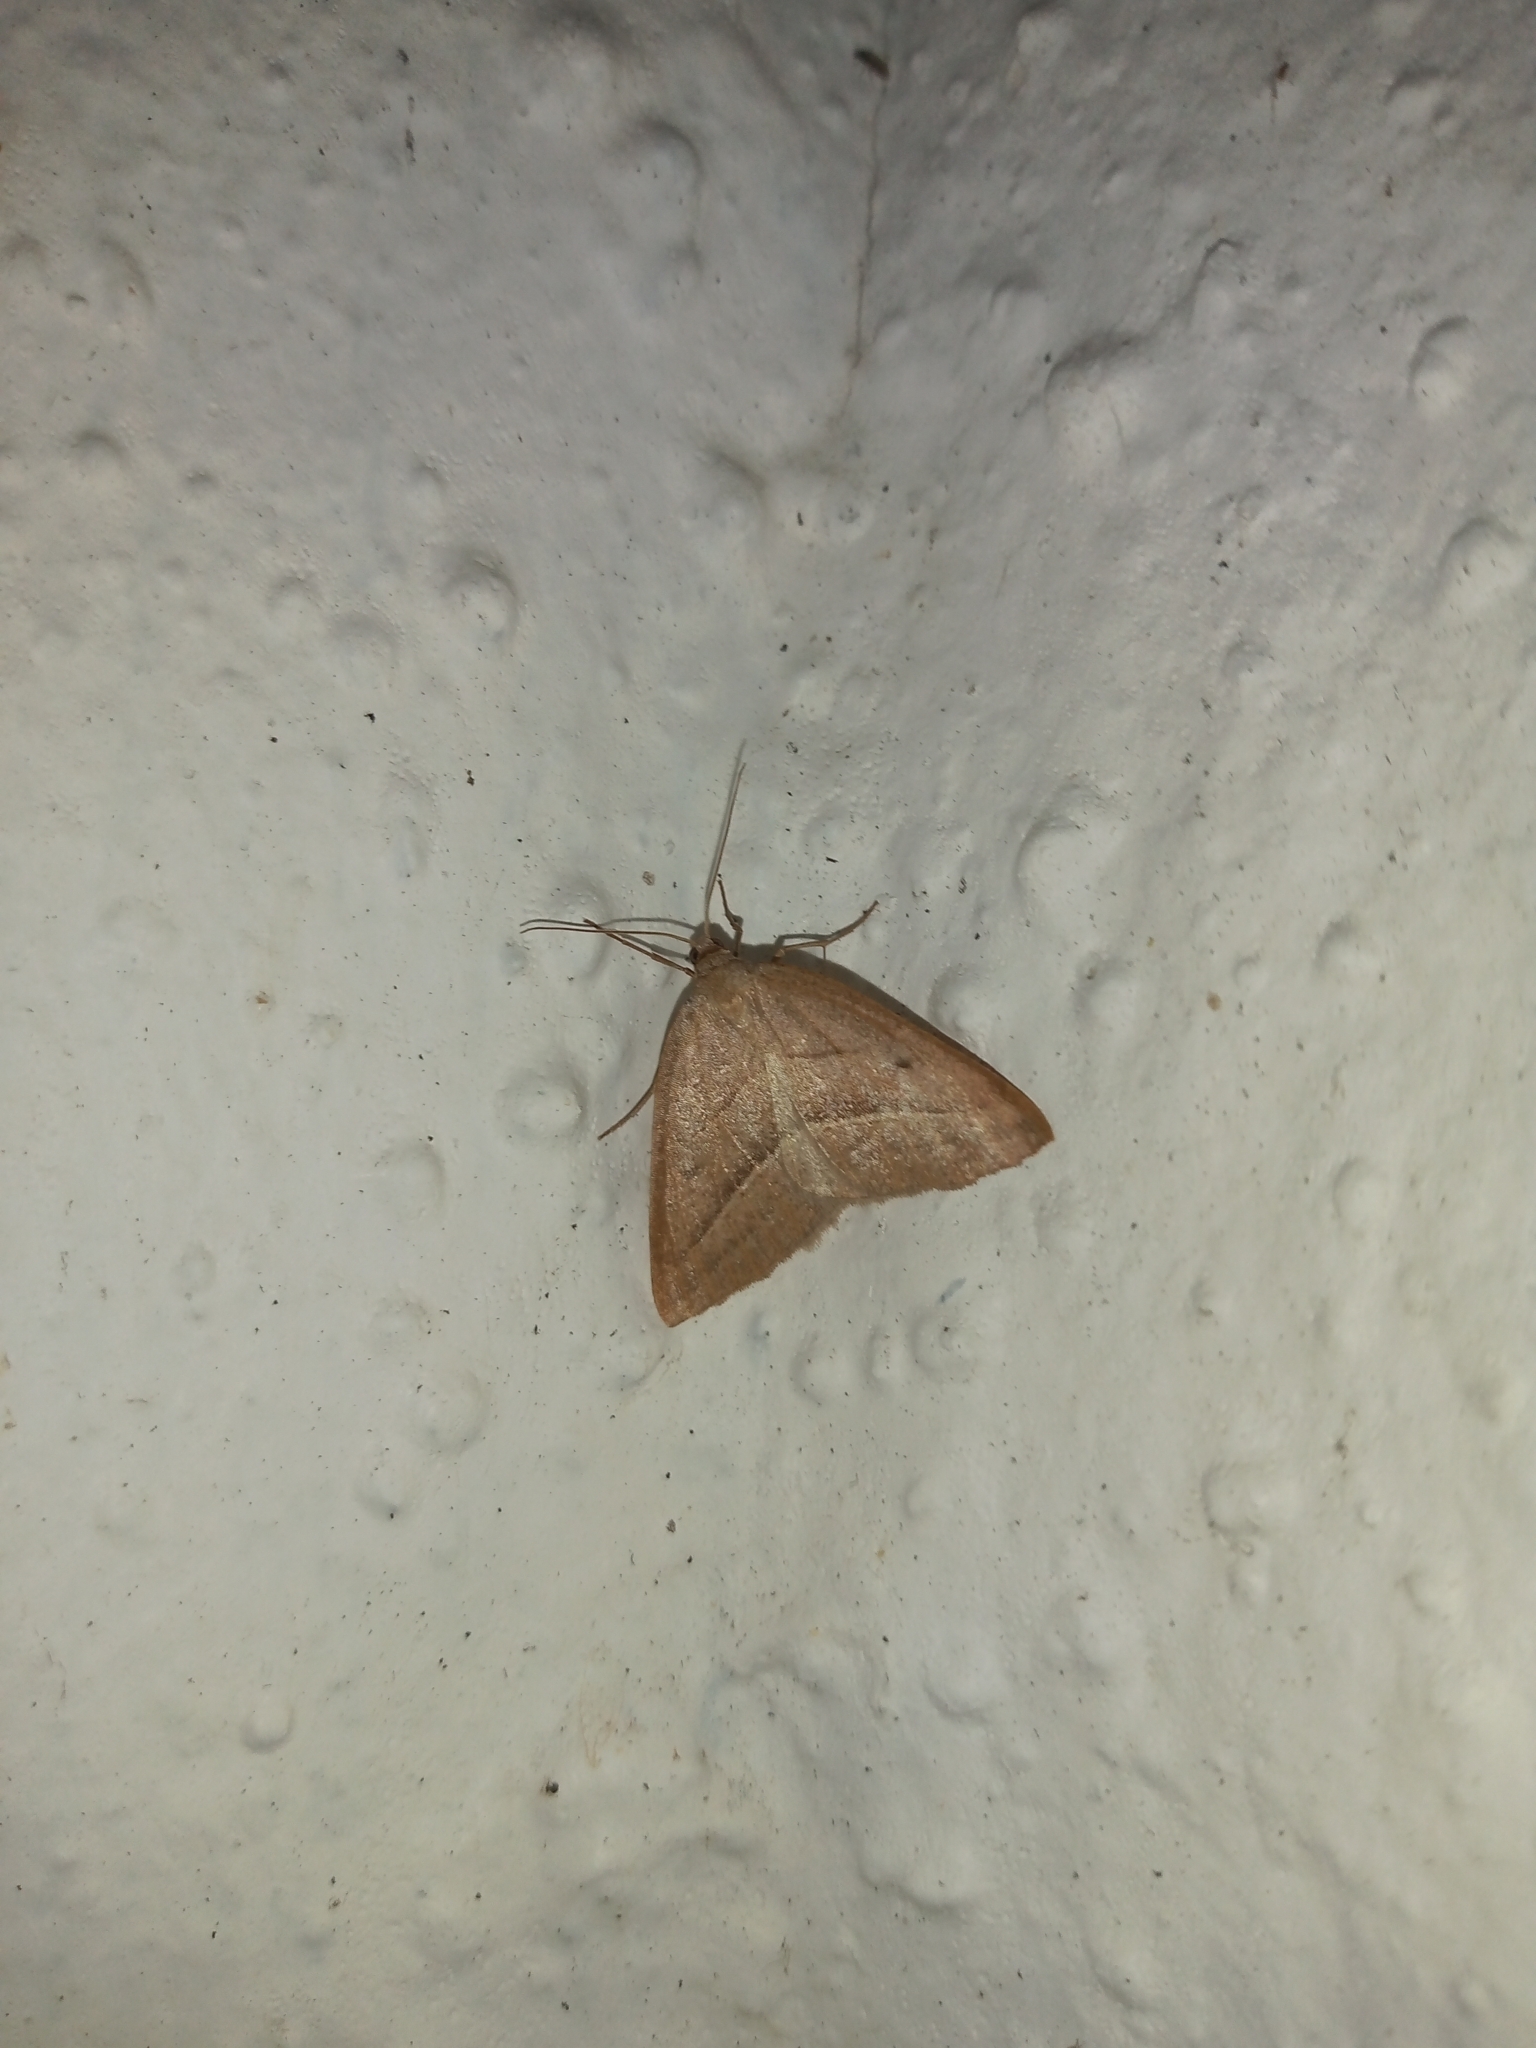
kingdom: Animalia
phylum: Arthropoda
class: Insecta
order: Lepidoptera
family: Pterophoridae
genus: Pterophorus
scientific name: Pterophorus Petrophora chlorosata
